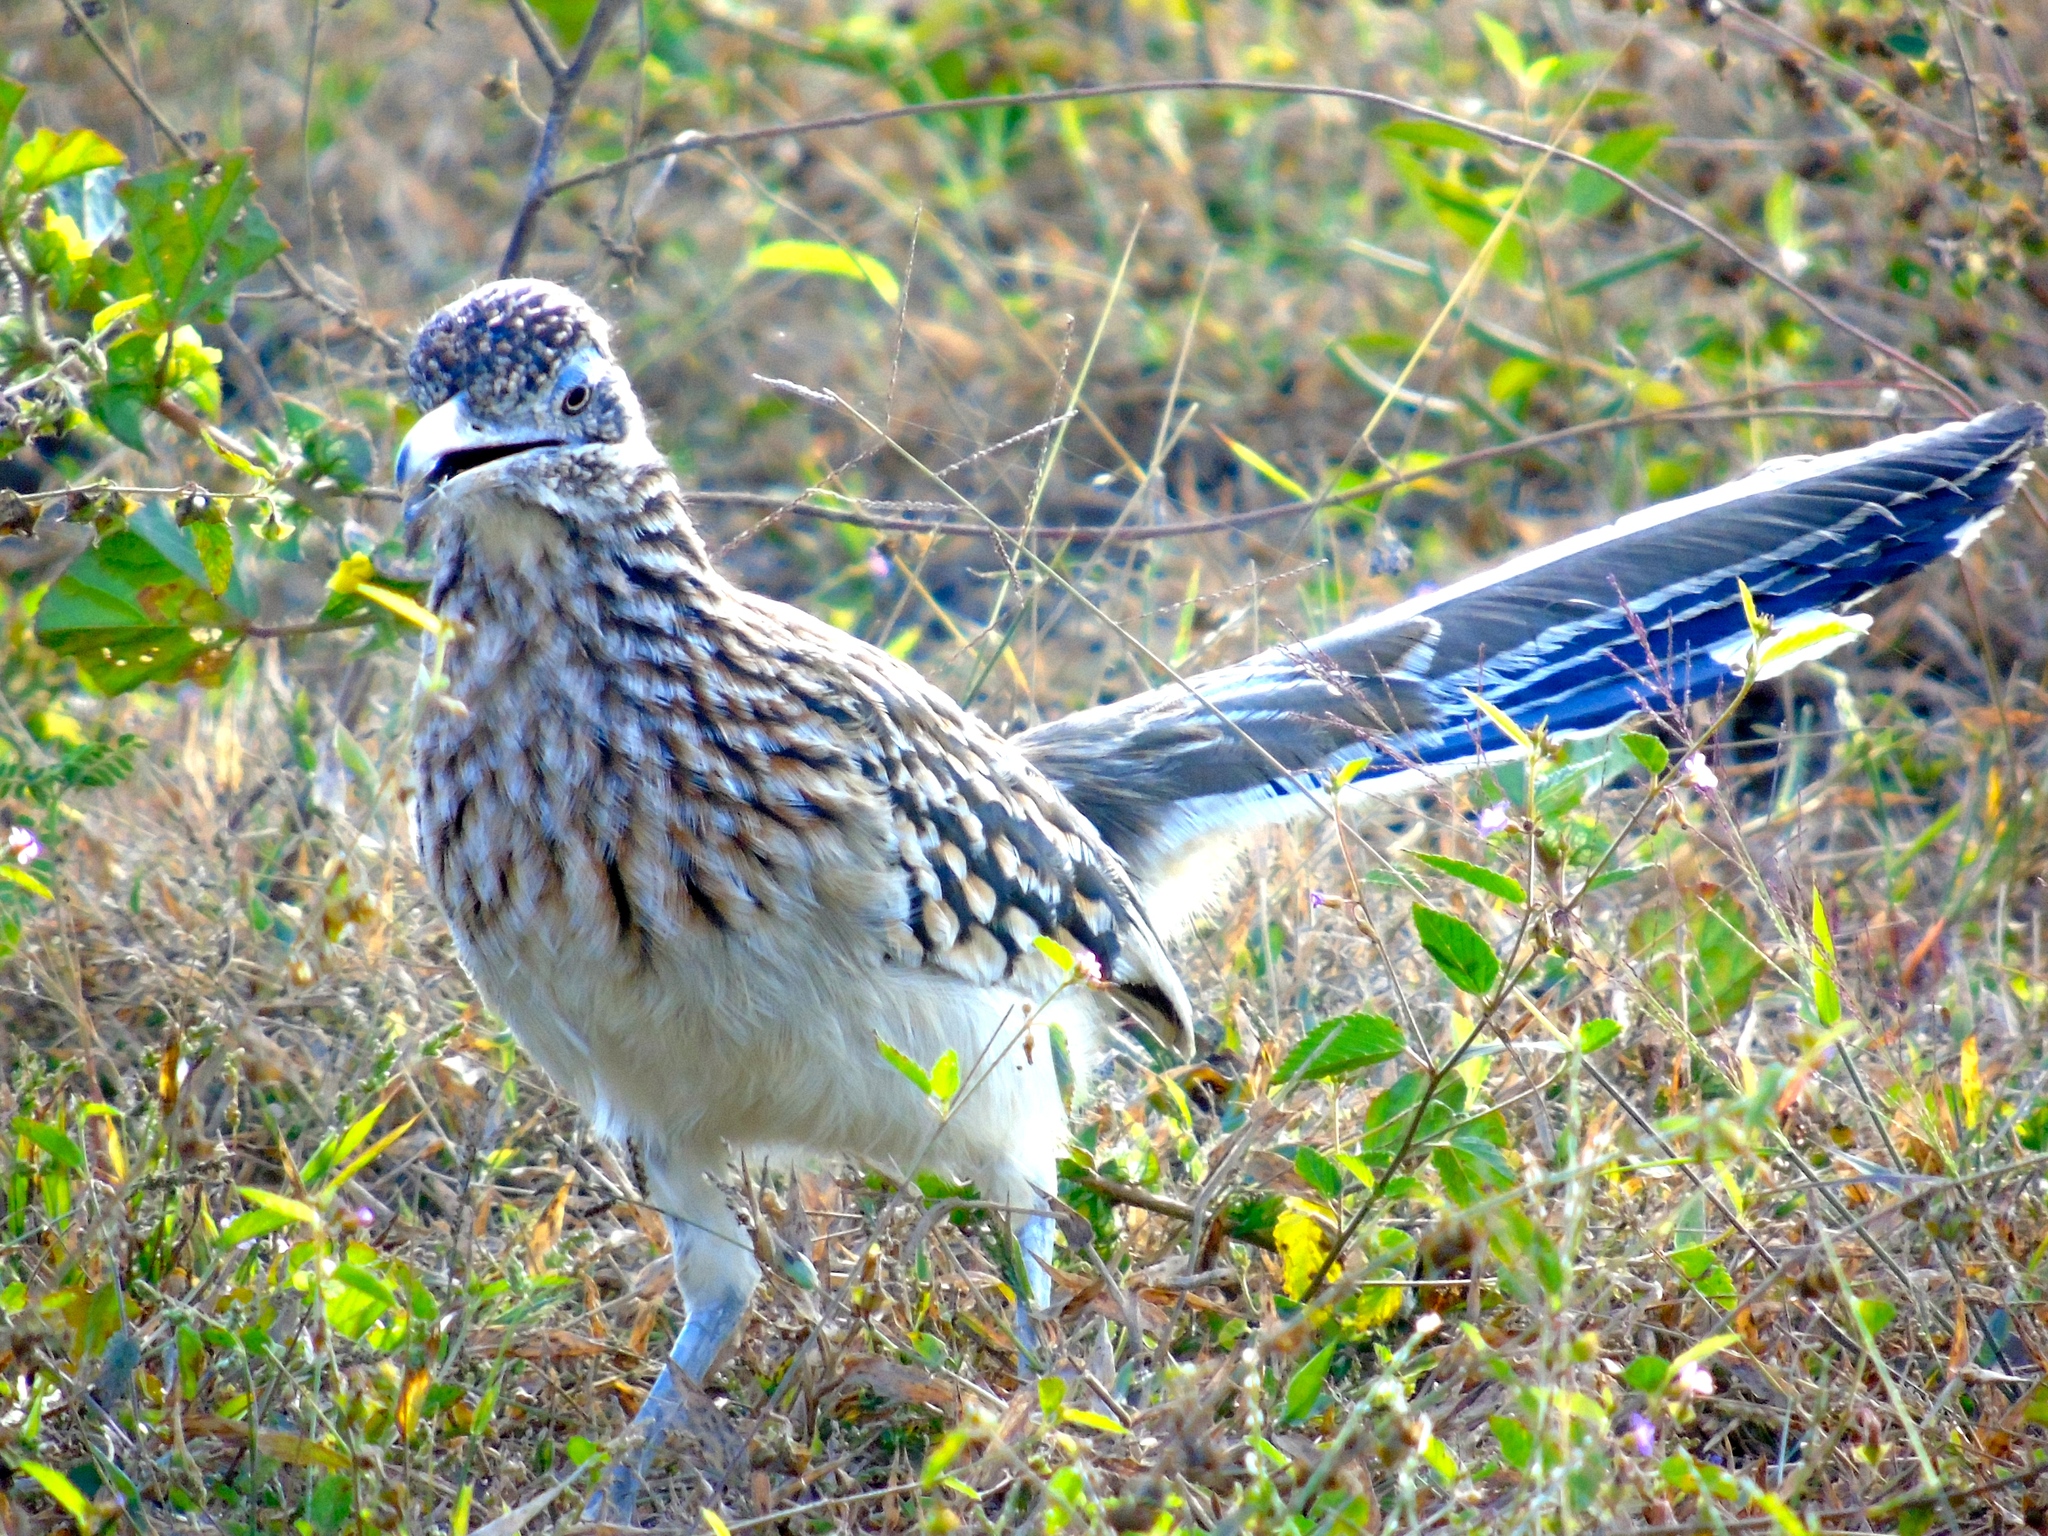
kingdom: Animalia
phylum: Chordata
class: Aves
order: Cuculiformes
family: Cuculidae
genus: Geococcyx
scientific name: Geococcyx californianus
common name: Greater roadrunner
